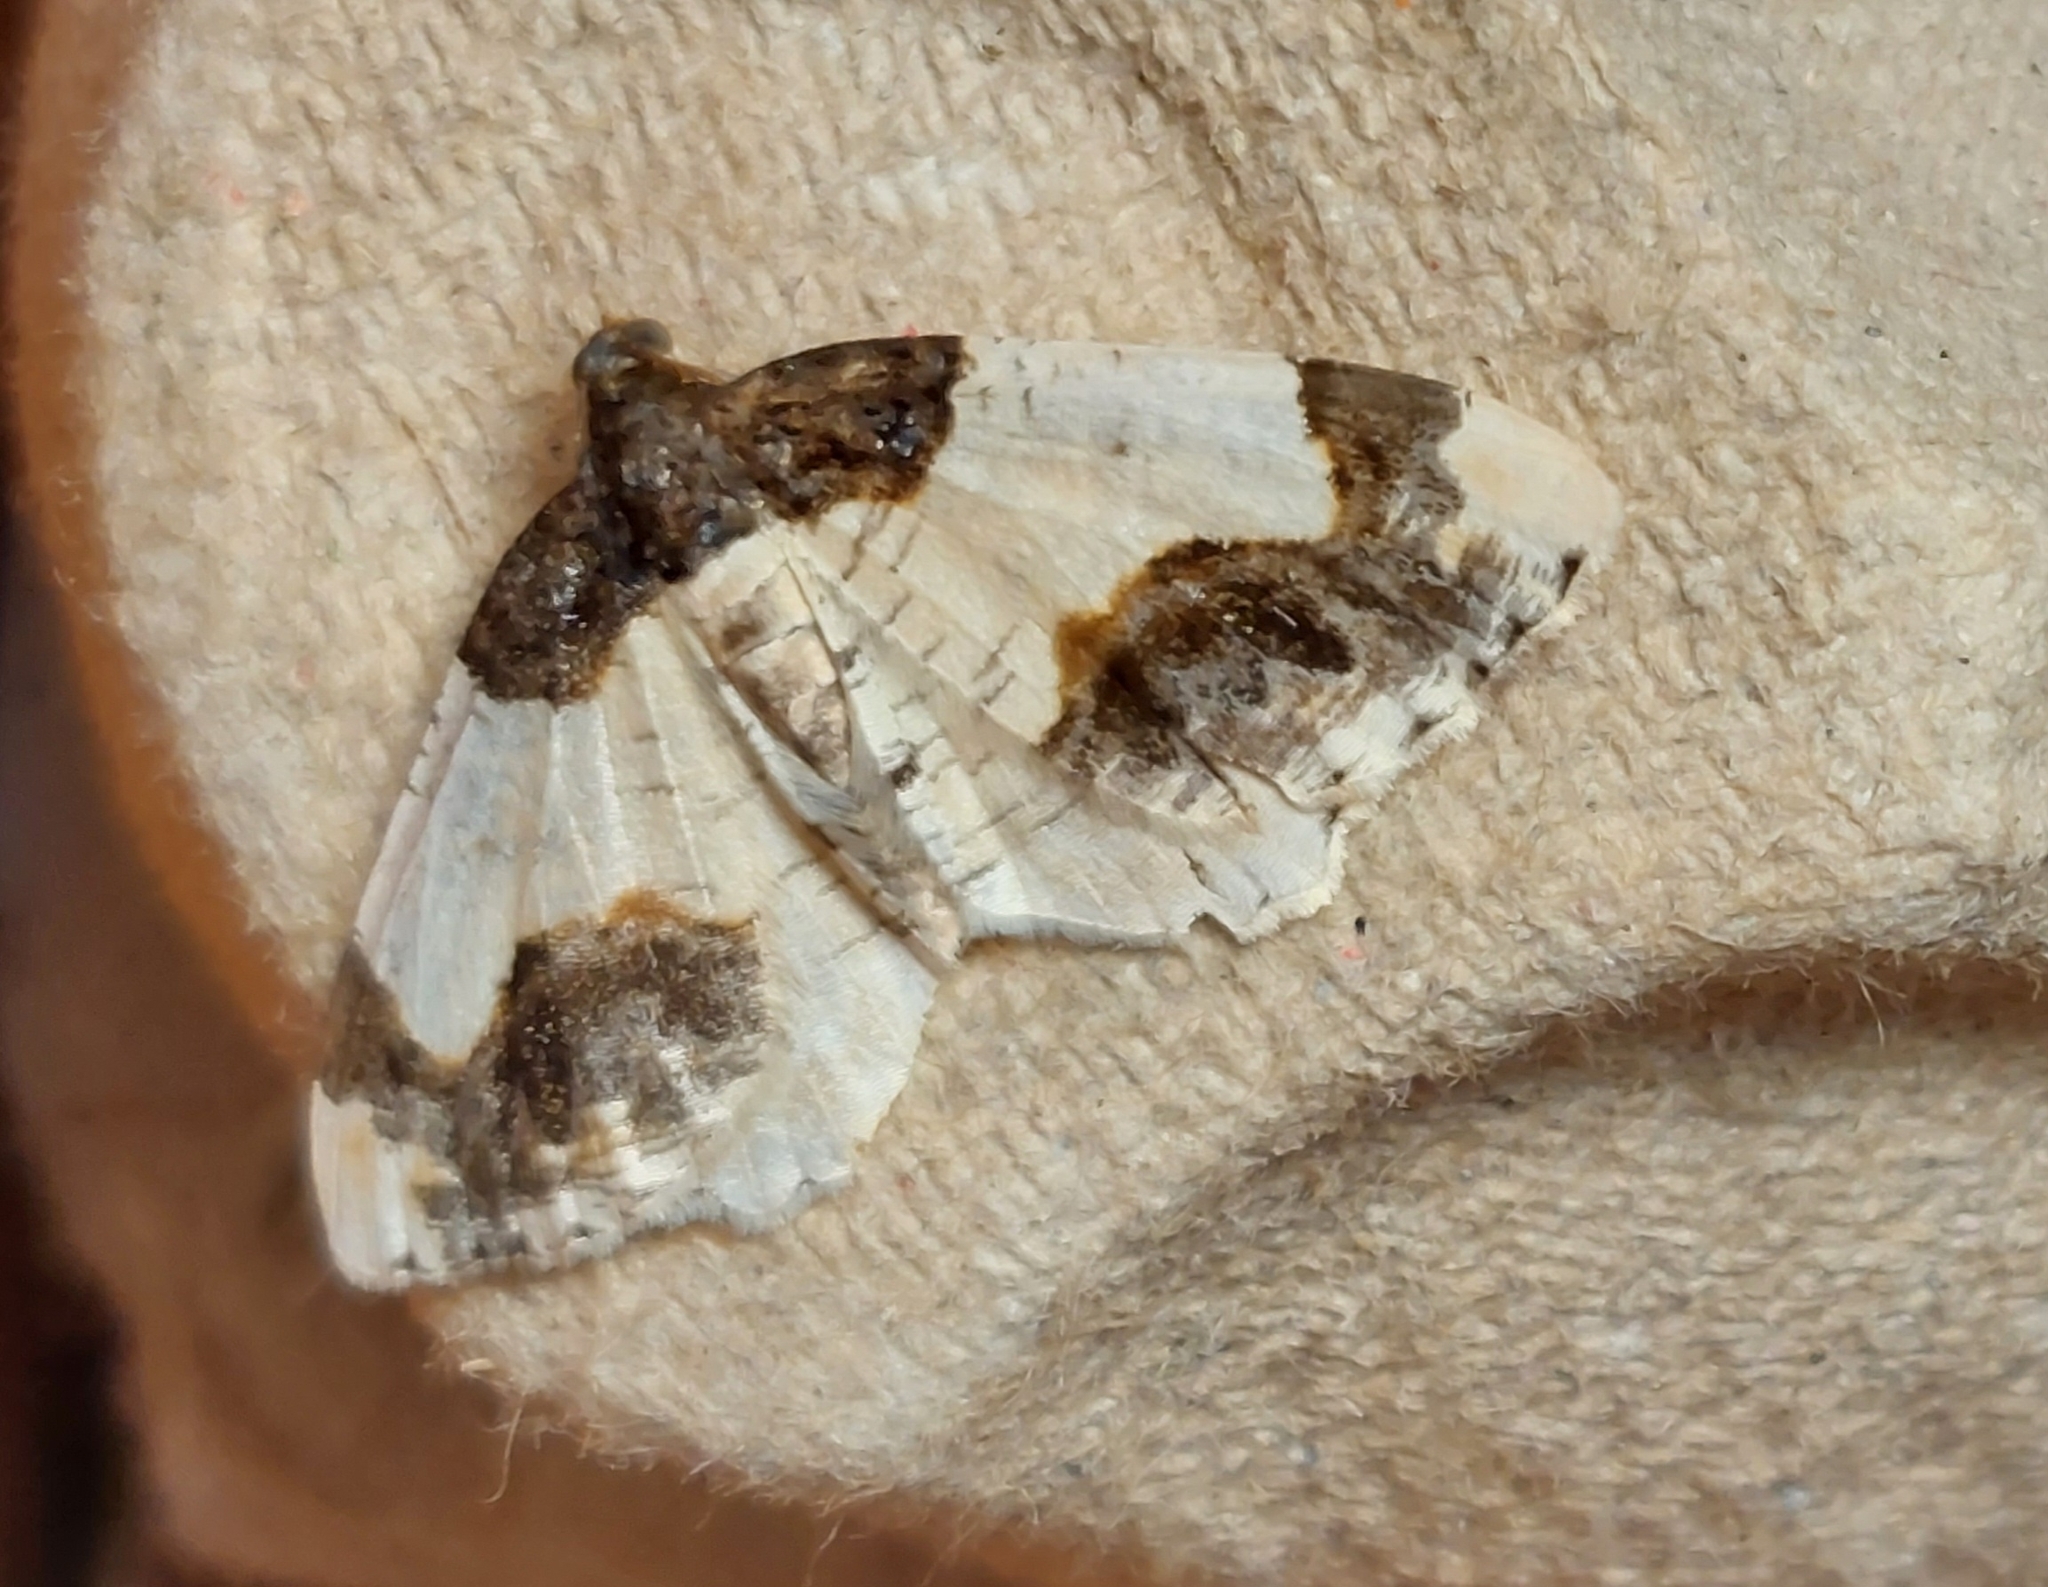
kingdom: Animalia
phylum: Arthropoda
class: Insecta
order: Lepidoptera
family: Geometridae
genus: Ligdia
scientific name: Ligdia adustata
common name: Scorched carpet
